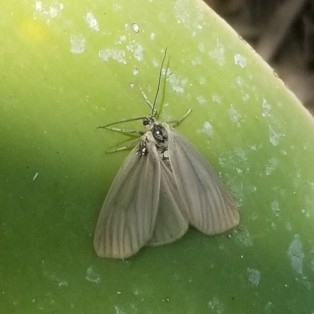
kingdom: Animalia
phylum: Arthropoda
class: Insecta
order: Lepidoptera
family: Notodontidae
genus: Phryganidia
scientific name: Phryganidia californica
